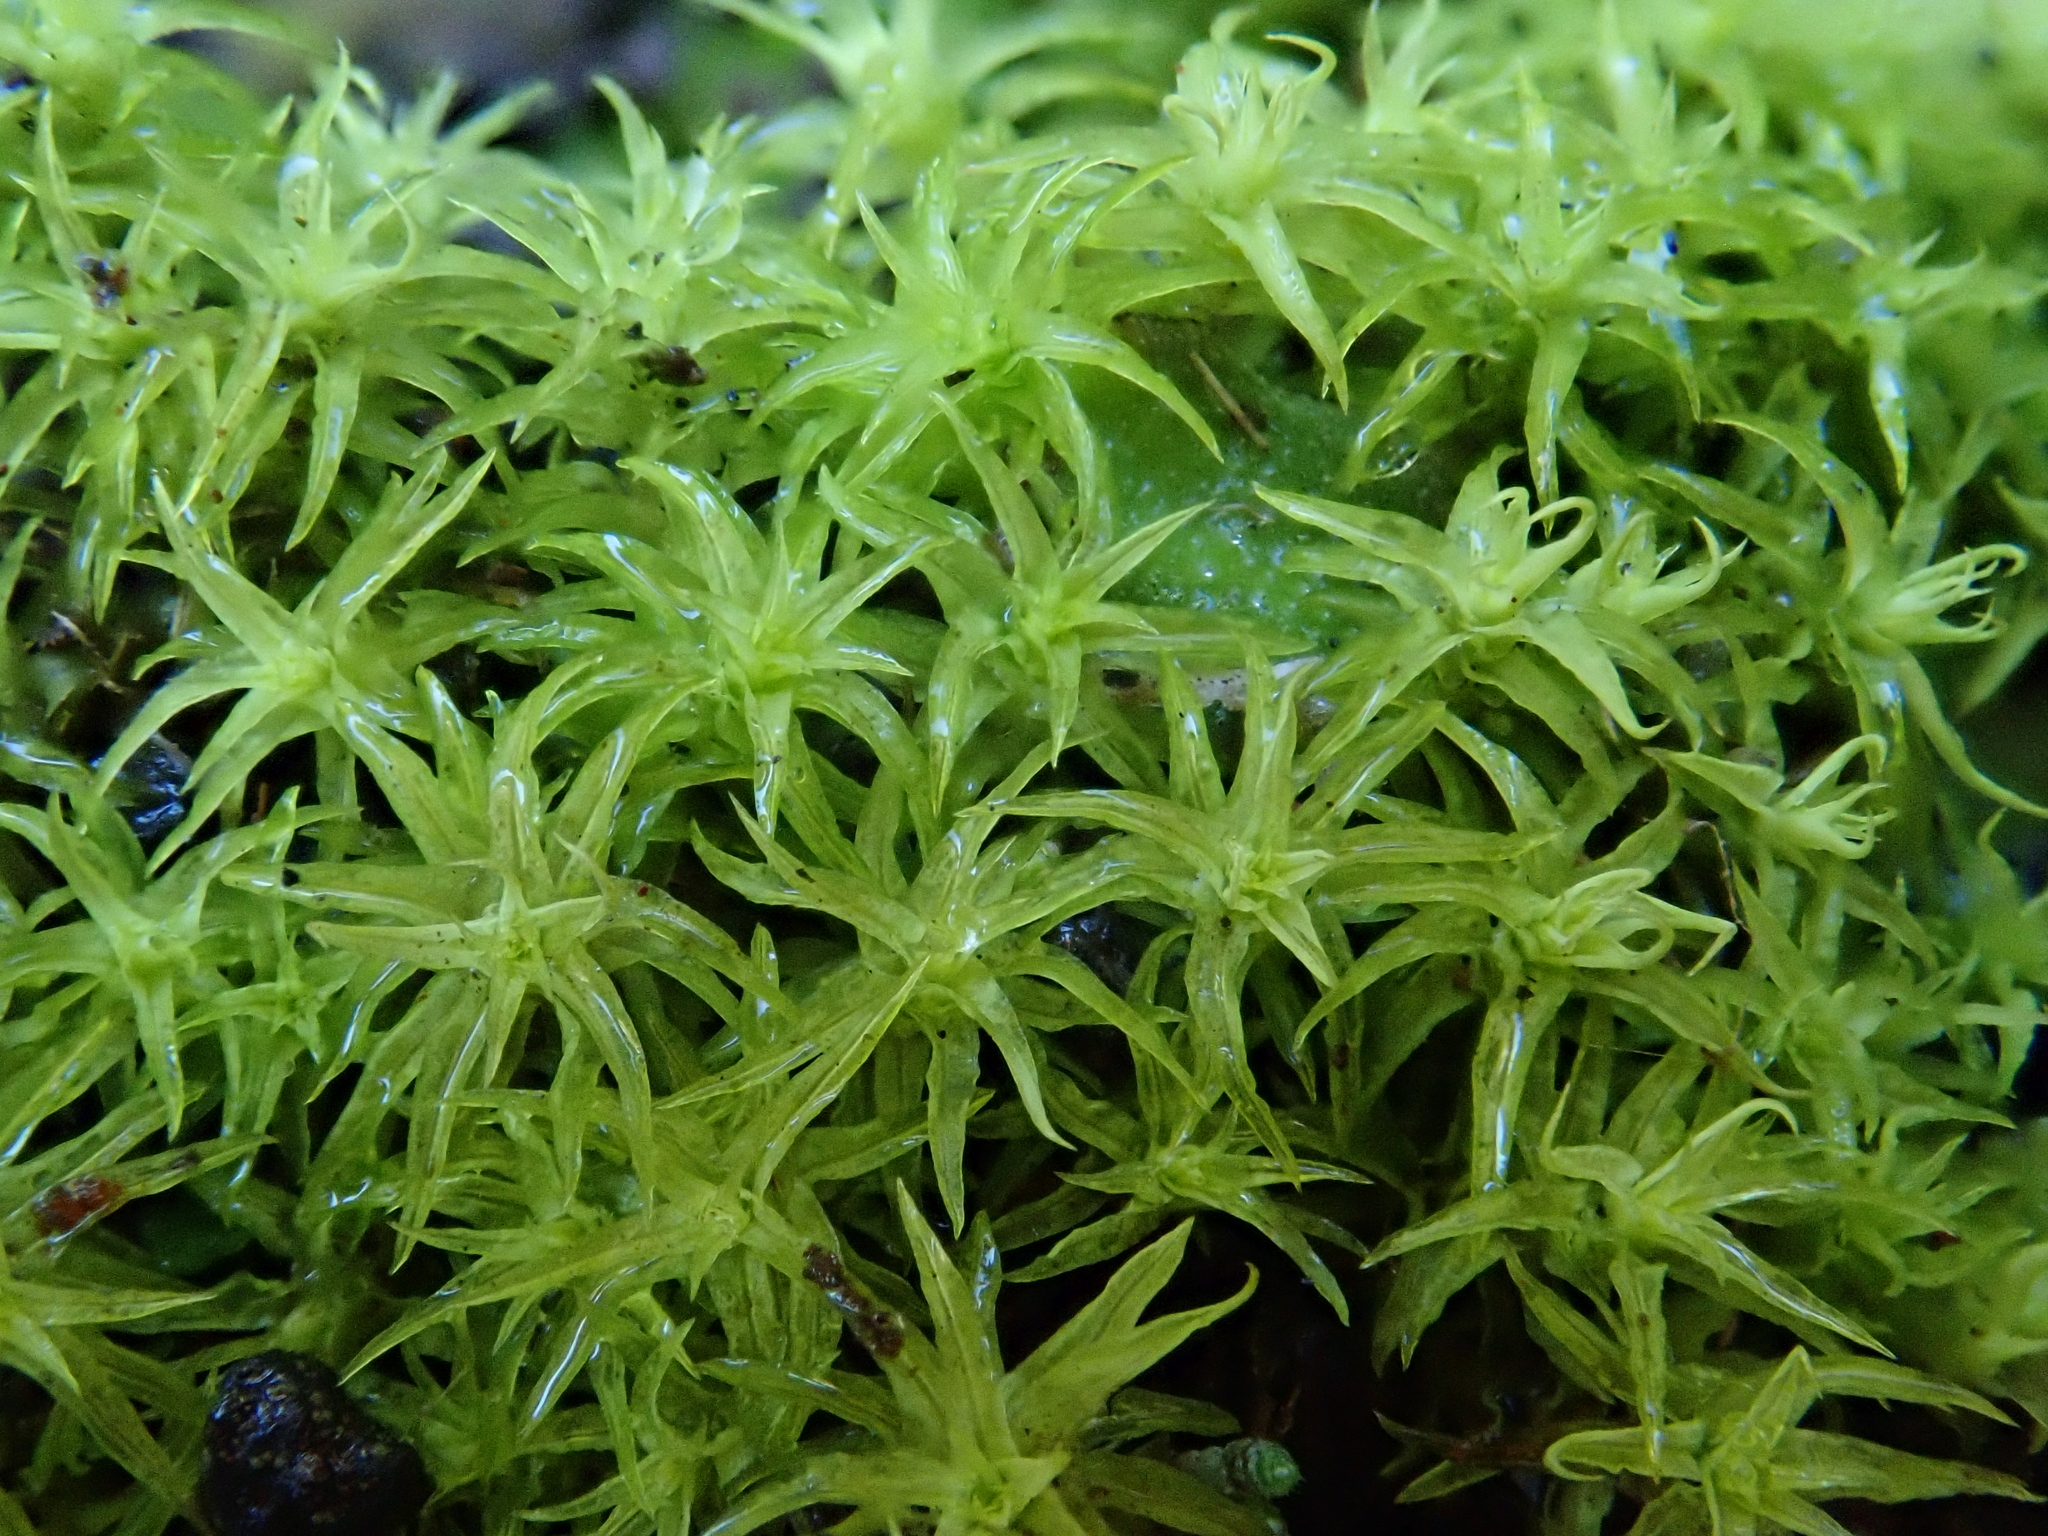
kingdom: Plantae
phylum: Bryophyta
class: Bryopsida
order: Pottiales
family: Pottiaceae
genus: Pleurochaete
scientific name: Pleurochaete squarrosa
